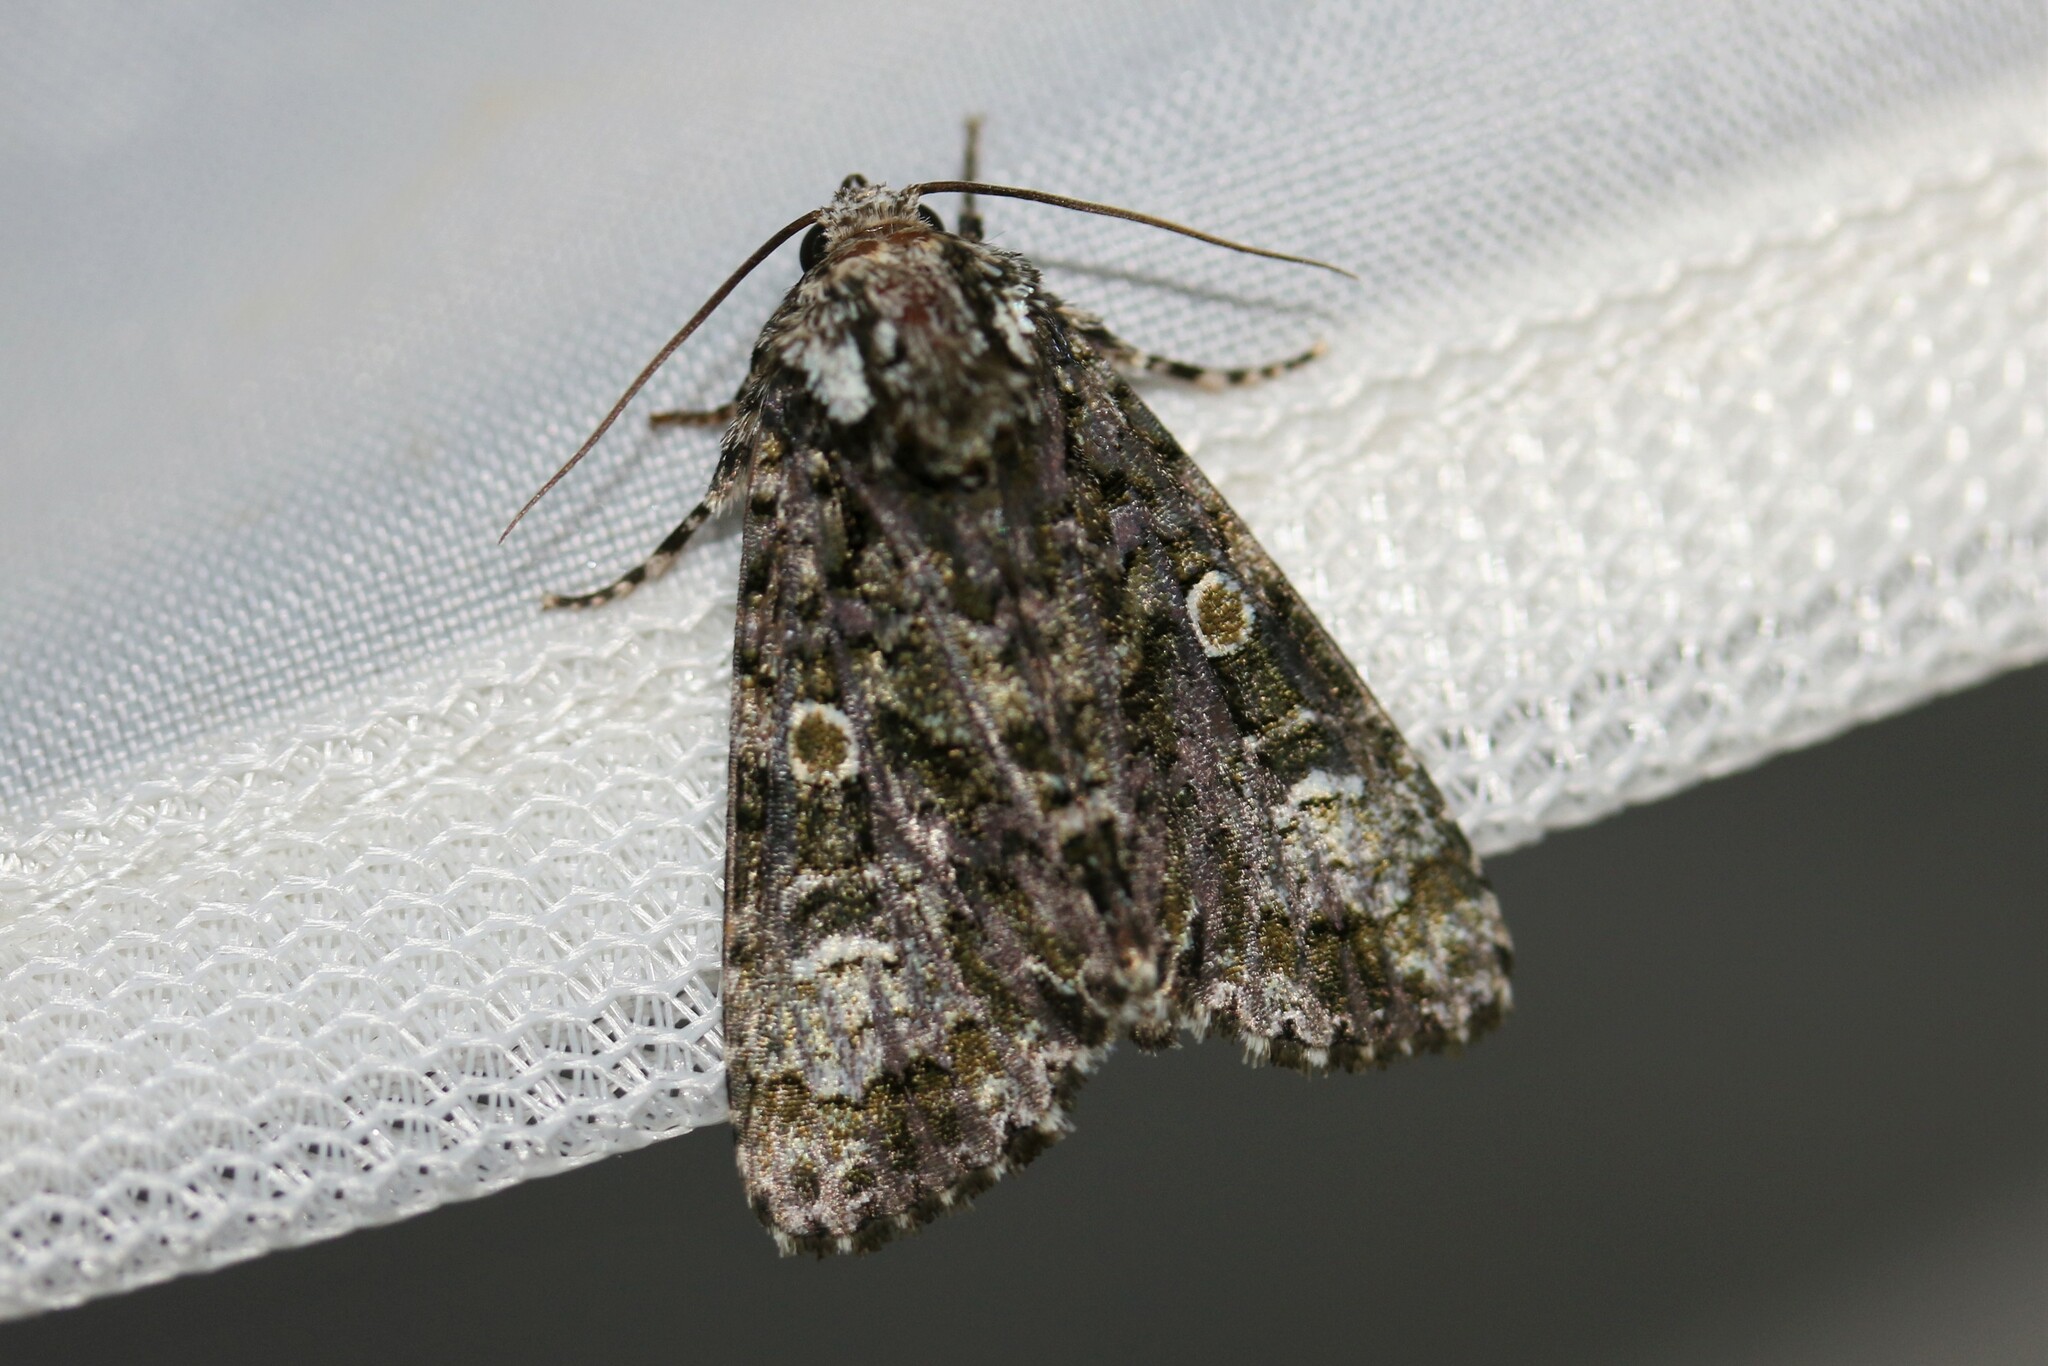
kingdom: Animalia
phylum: Arthropoda
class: Insecta
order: Lepidoptera
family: Noctuidae
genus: Craniophora
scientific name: Craniophora ligustri
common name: Coronet
